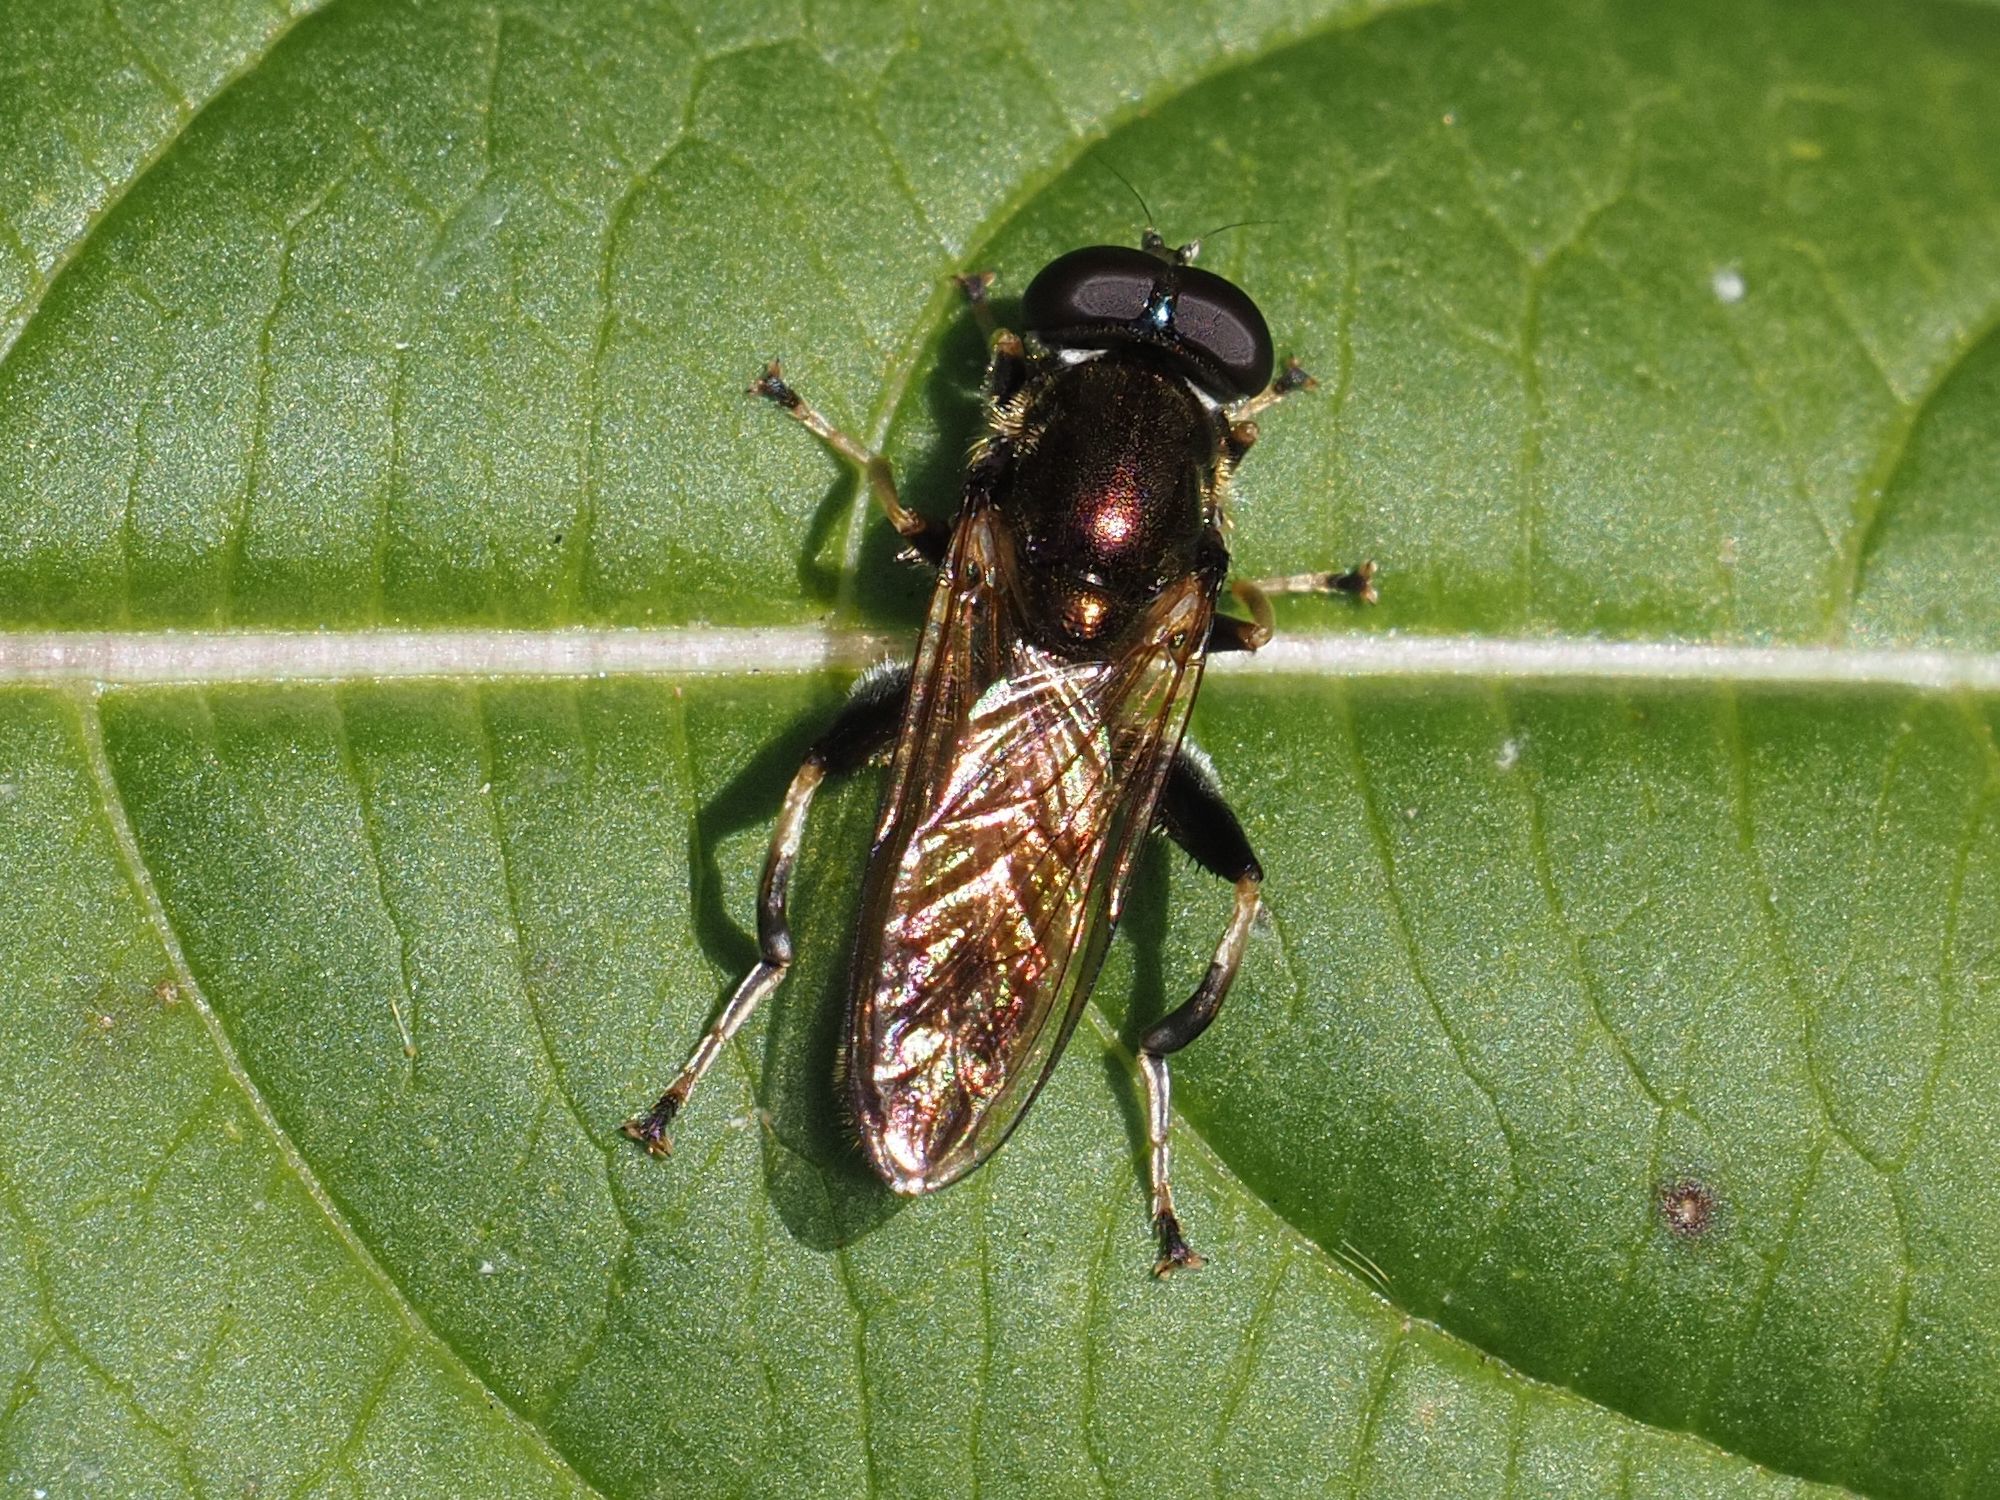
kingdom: Animalia
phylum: Arthropoda
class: Insecta
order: Diptera
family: Syrphidae
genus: Xylota
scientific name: Xylota segnis
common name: Brown-toed forest fly
